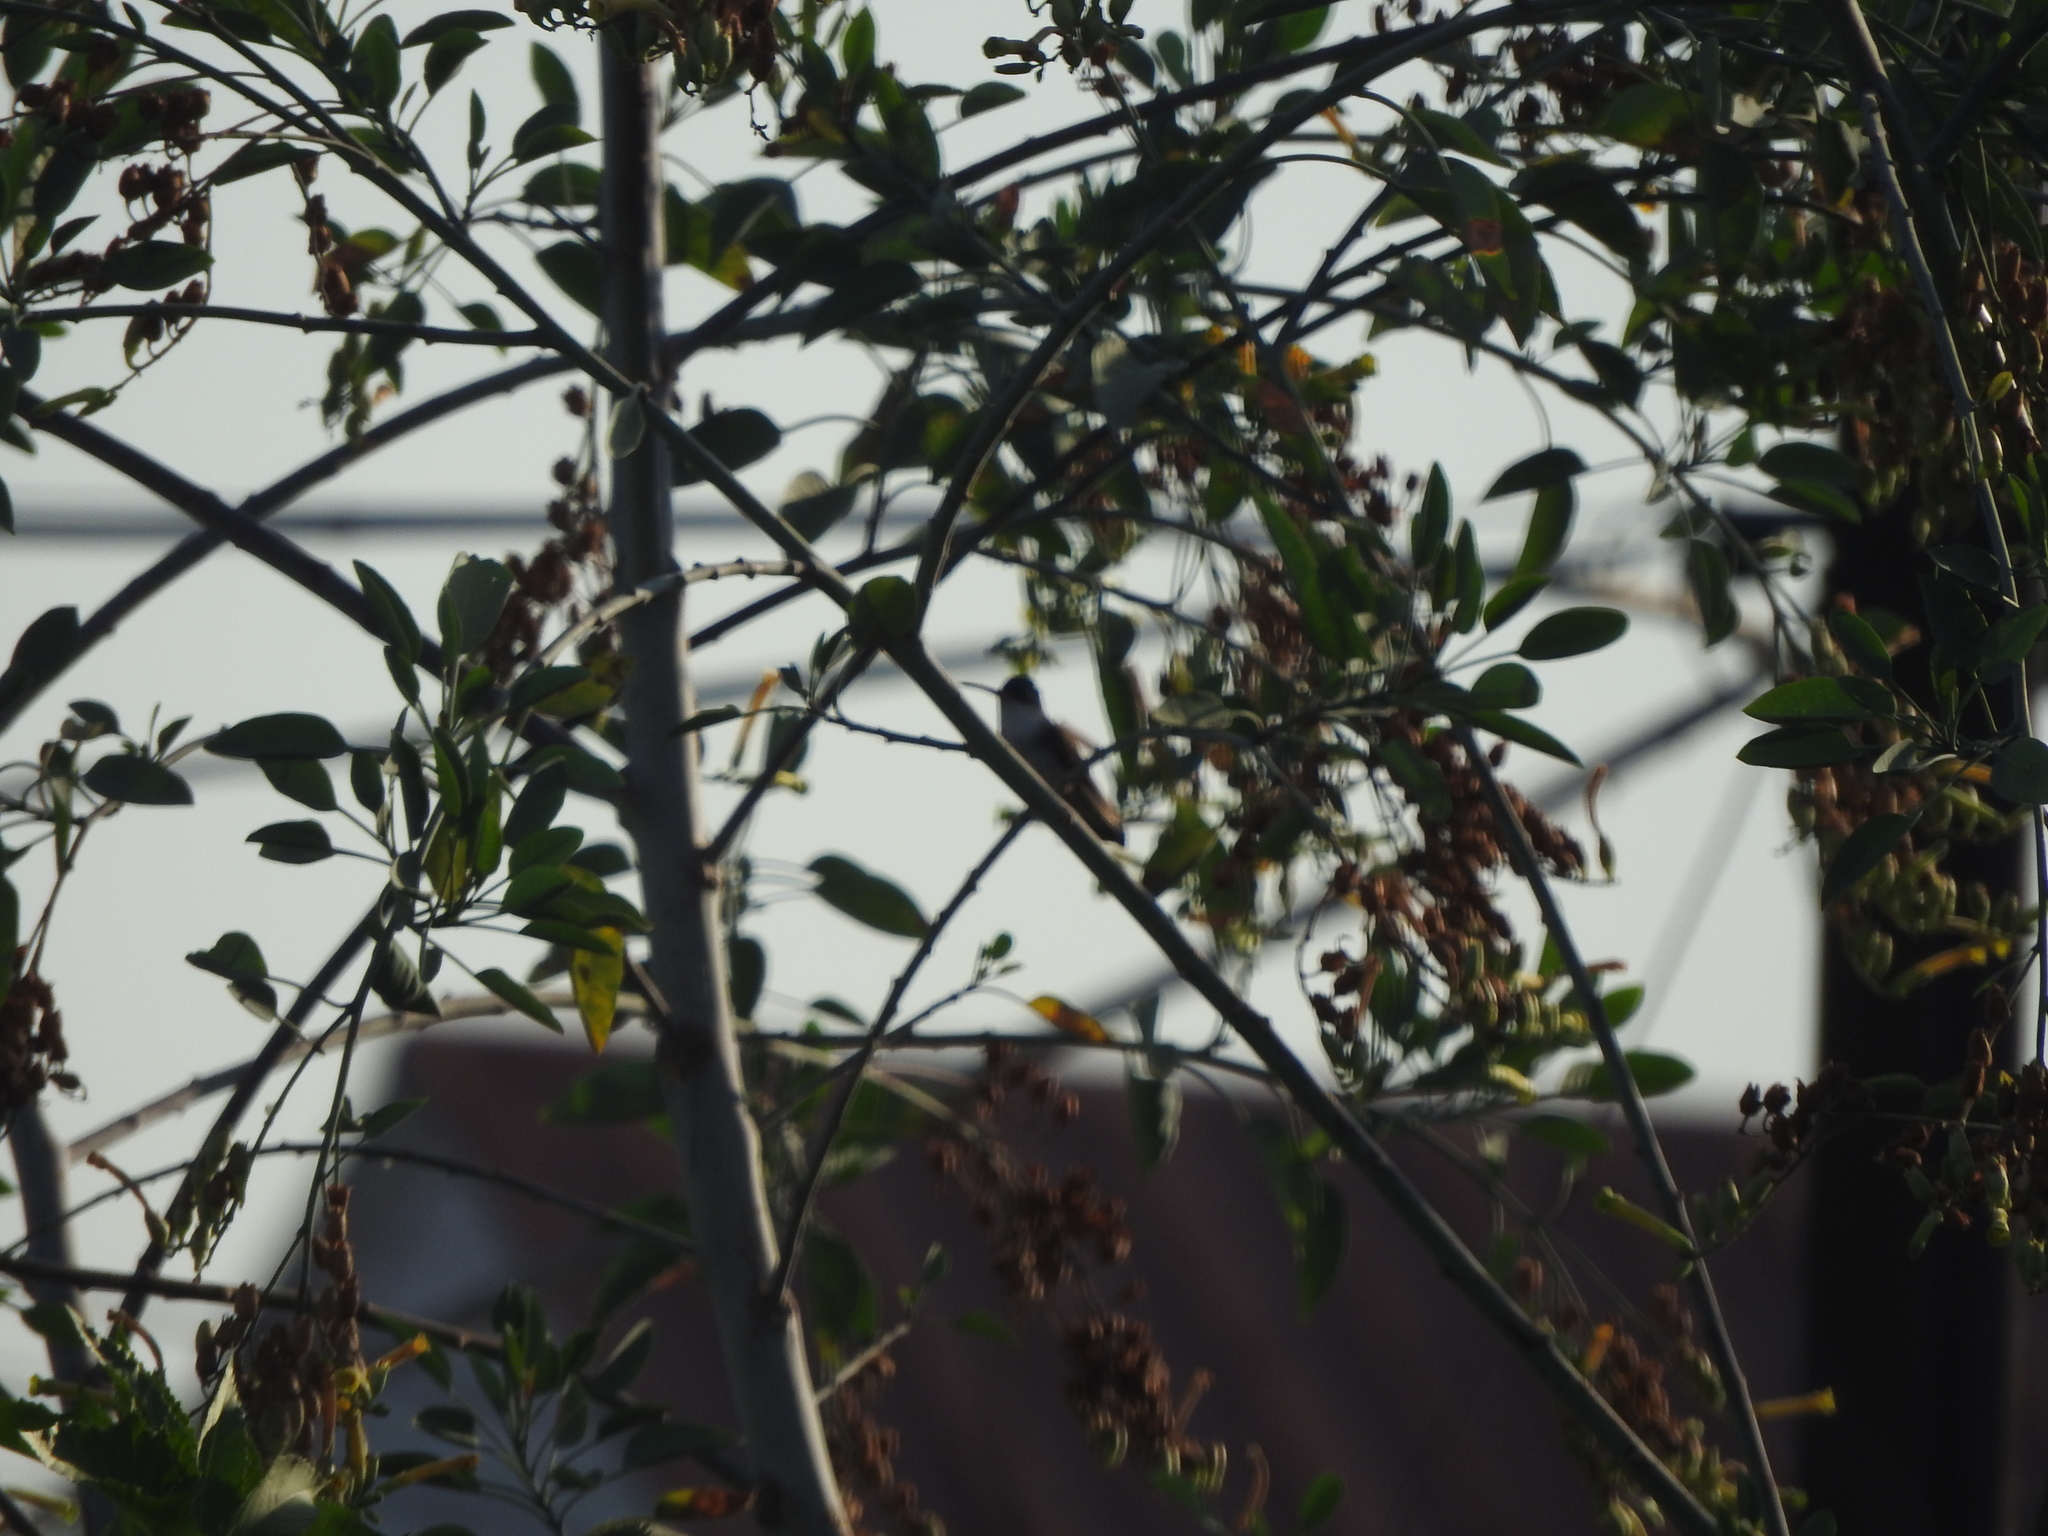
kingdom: Animalia
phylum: Chordata
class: Aves
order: Apodiformes
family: Trochilidae
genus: Leucolia
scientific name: Leucolia violiceps
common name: Violet-crowned hummingbird
